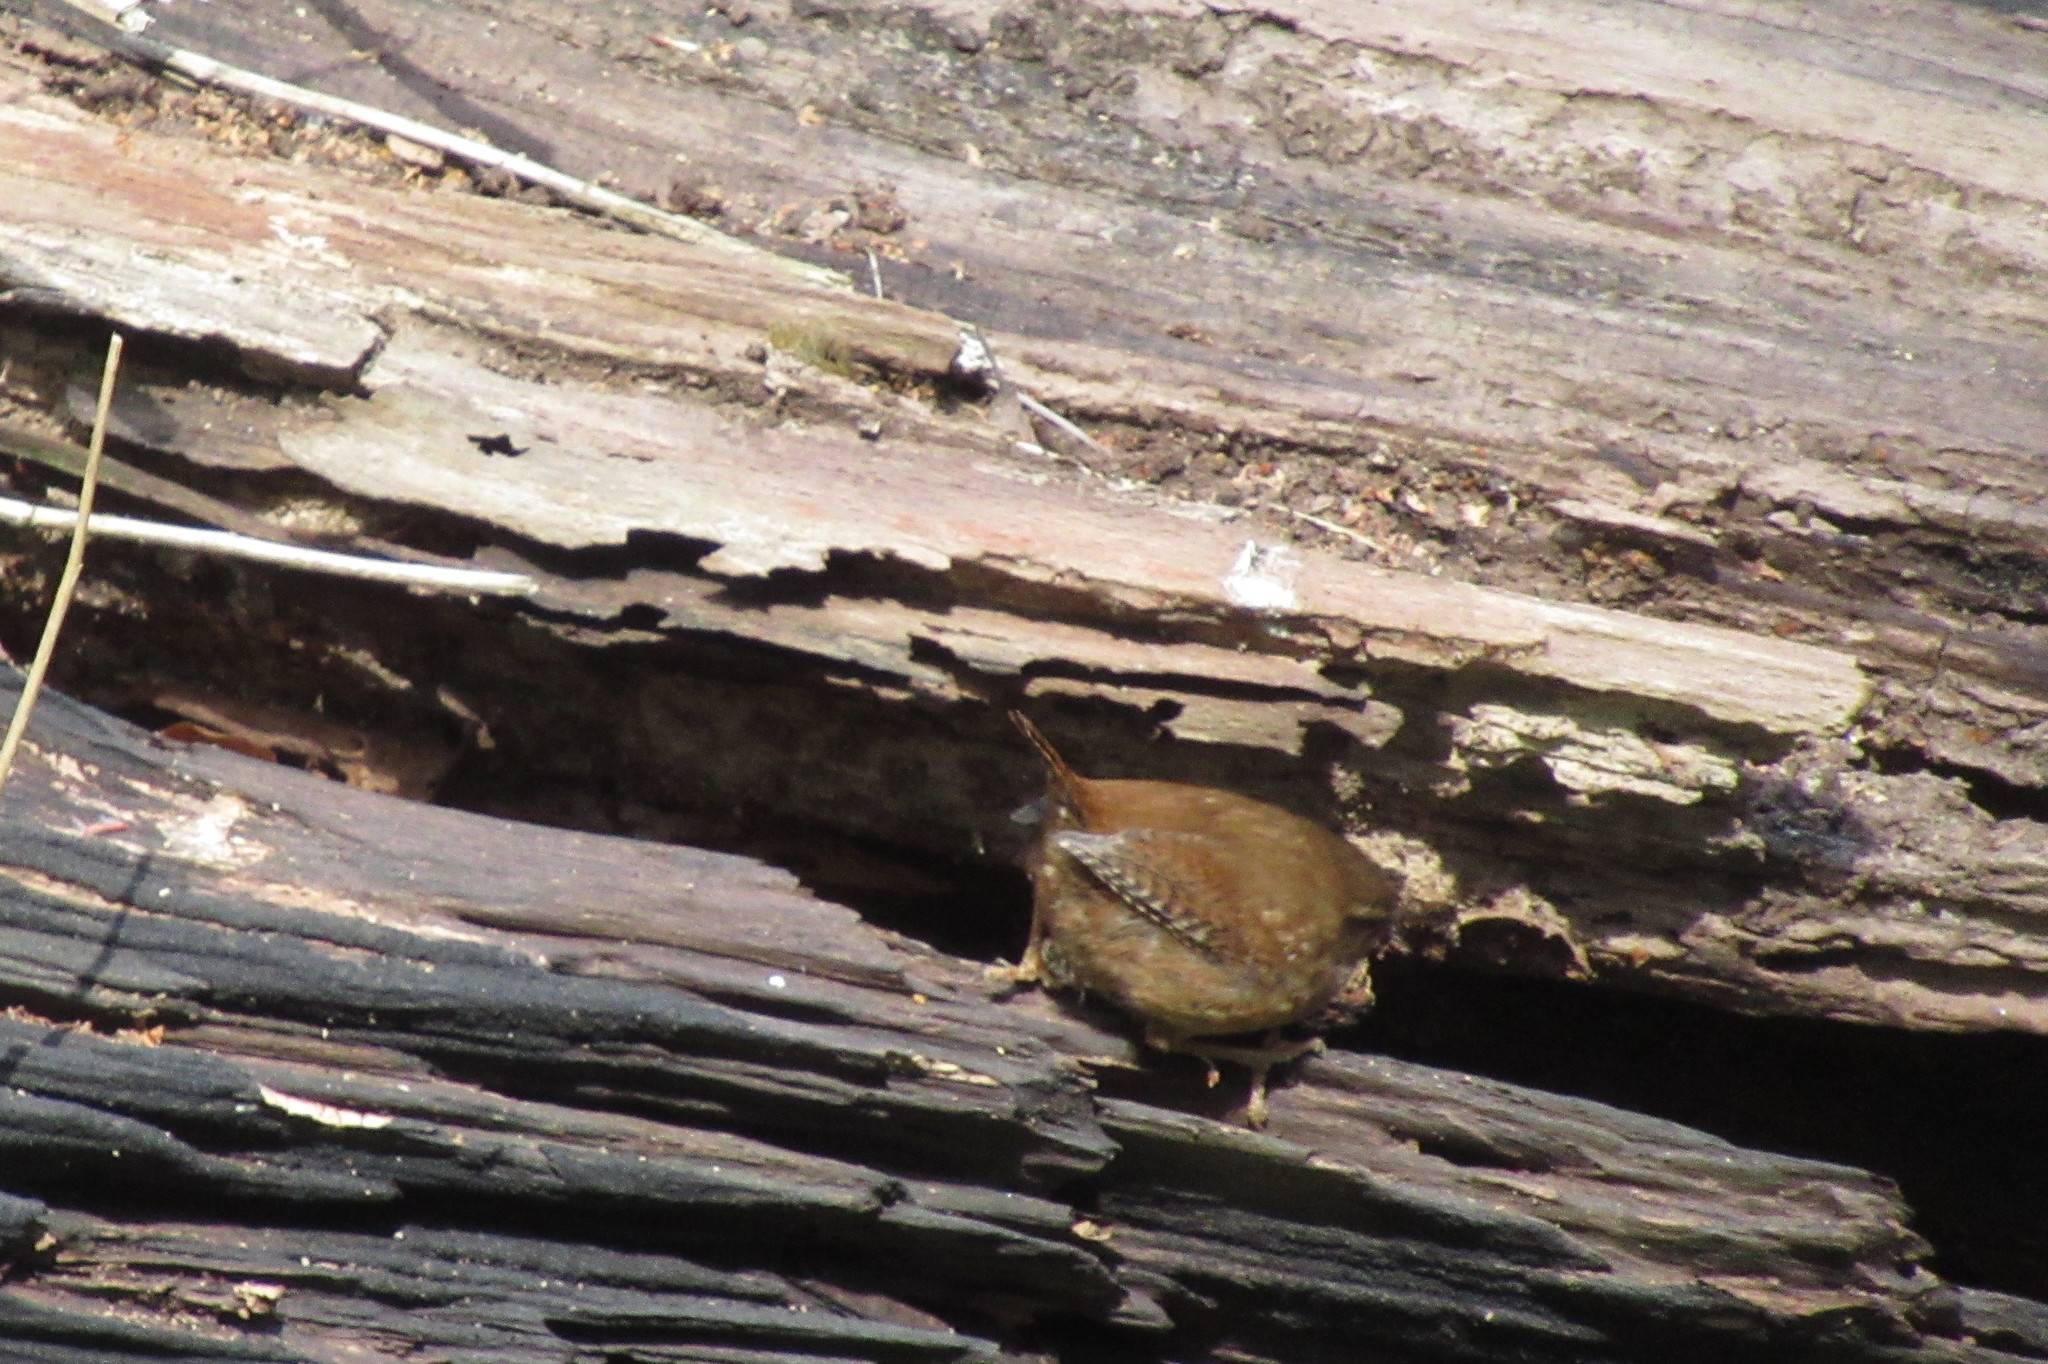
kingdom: Animalia
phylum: Chordata
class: Aves
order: Passeriformes
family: Troglodytidae
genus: Troglodytes
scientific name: Troglodytes troglodytes
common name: Eurasian wren
